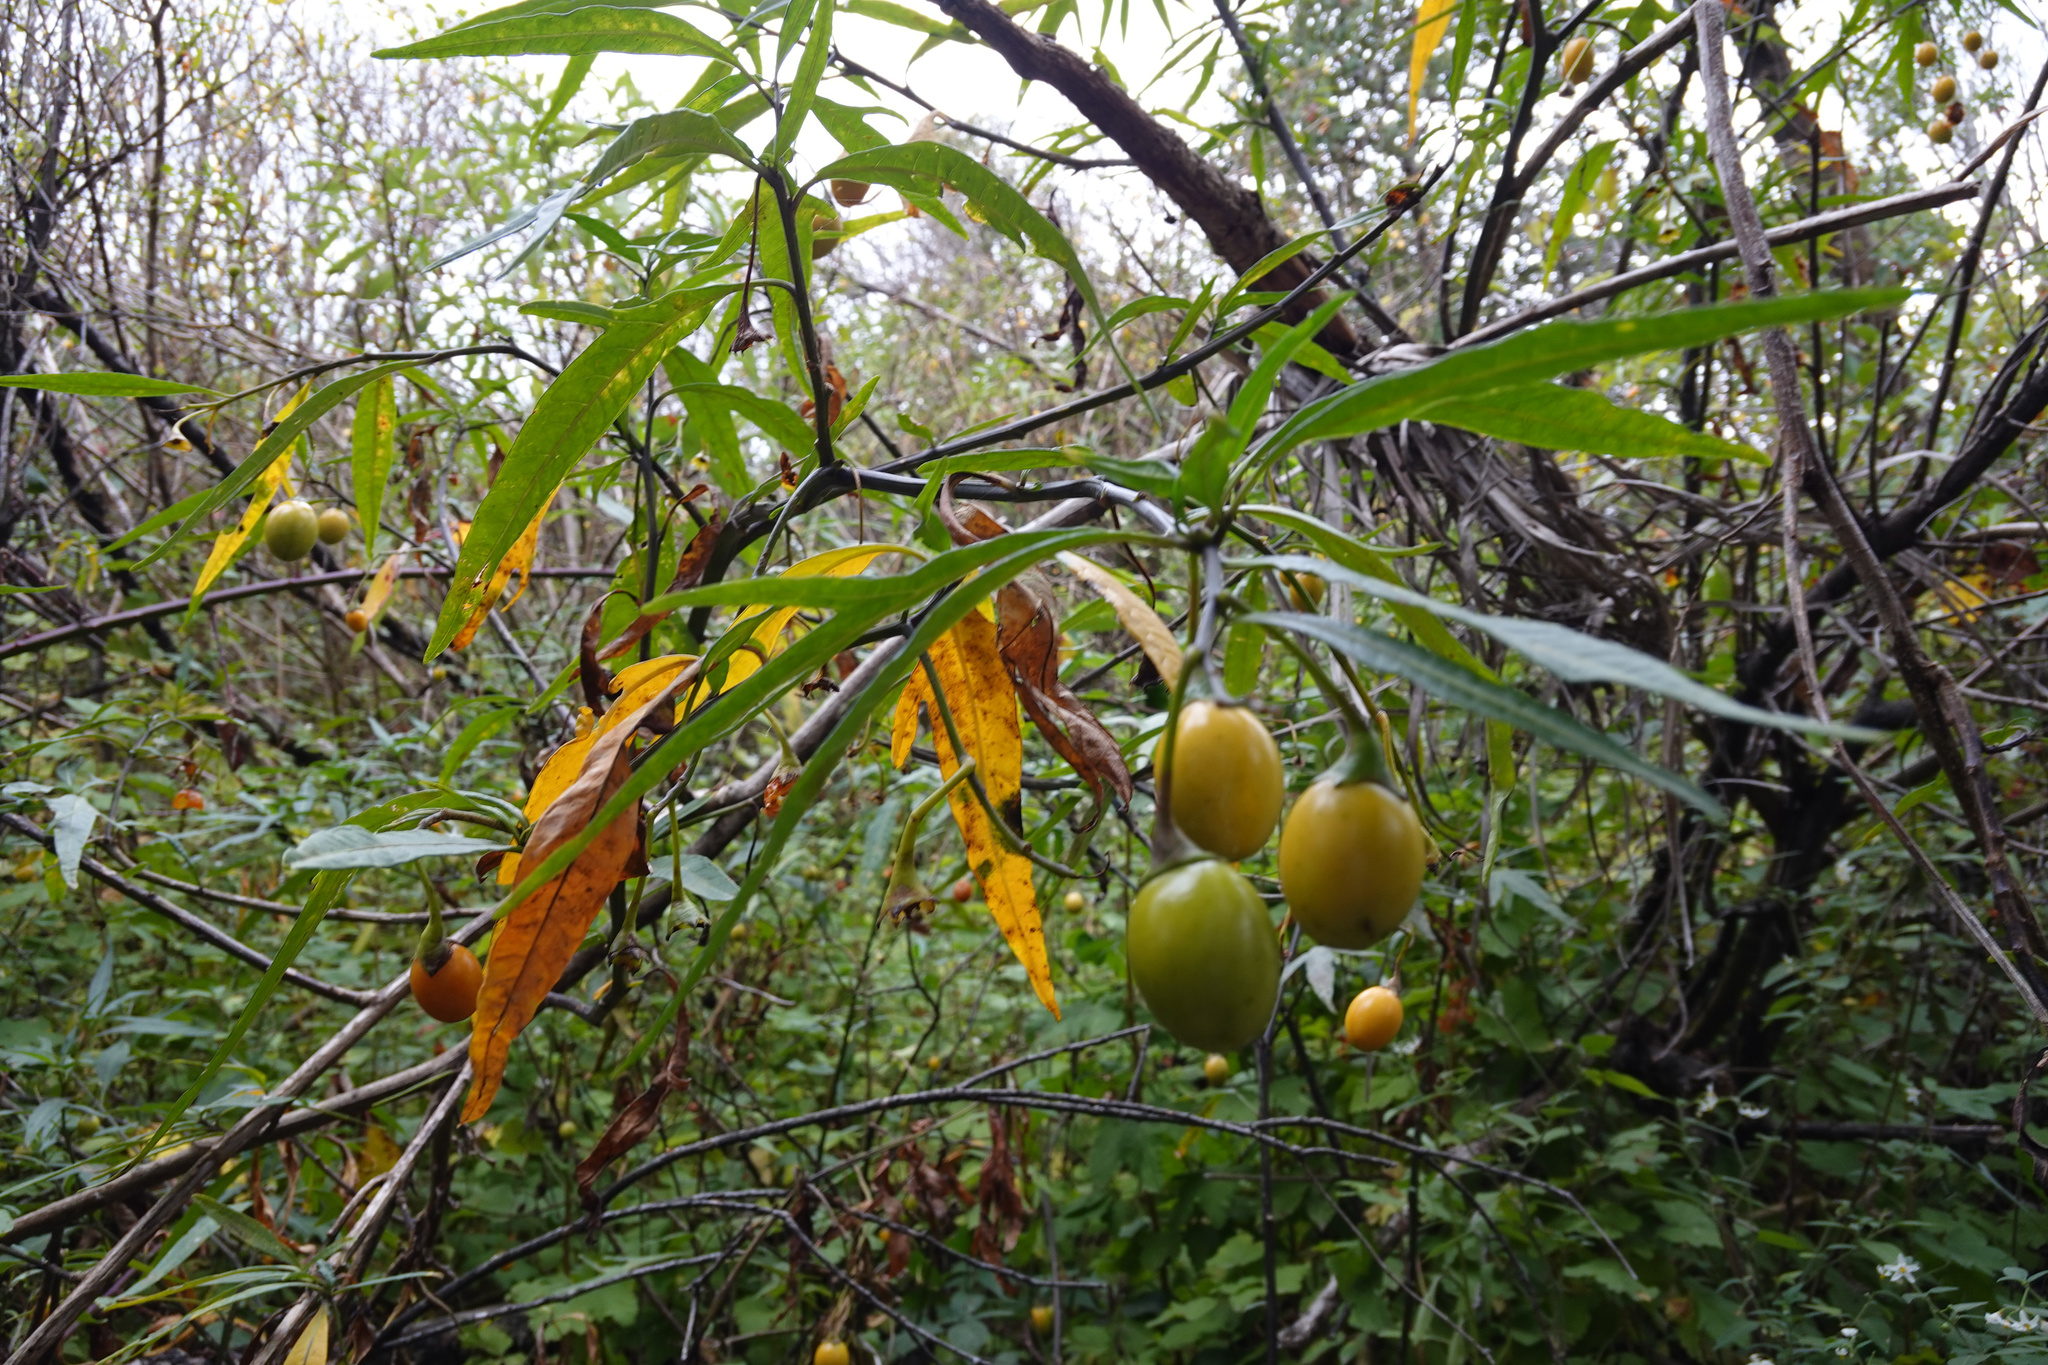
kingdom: Plantae
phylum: Tracheophyta
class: Magnoliopsida
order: Solanales
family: Solanaceae
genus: Solanum
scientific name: Solanum laciniatum
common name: Kangaroo-apple
